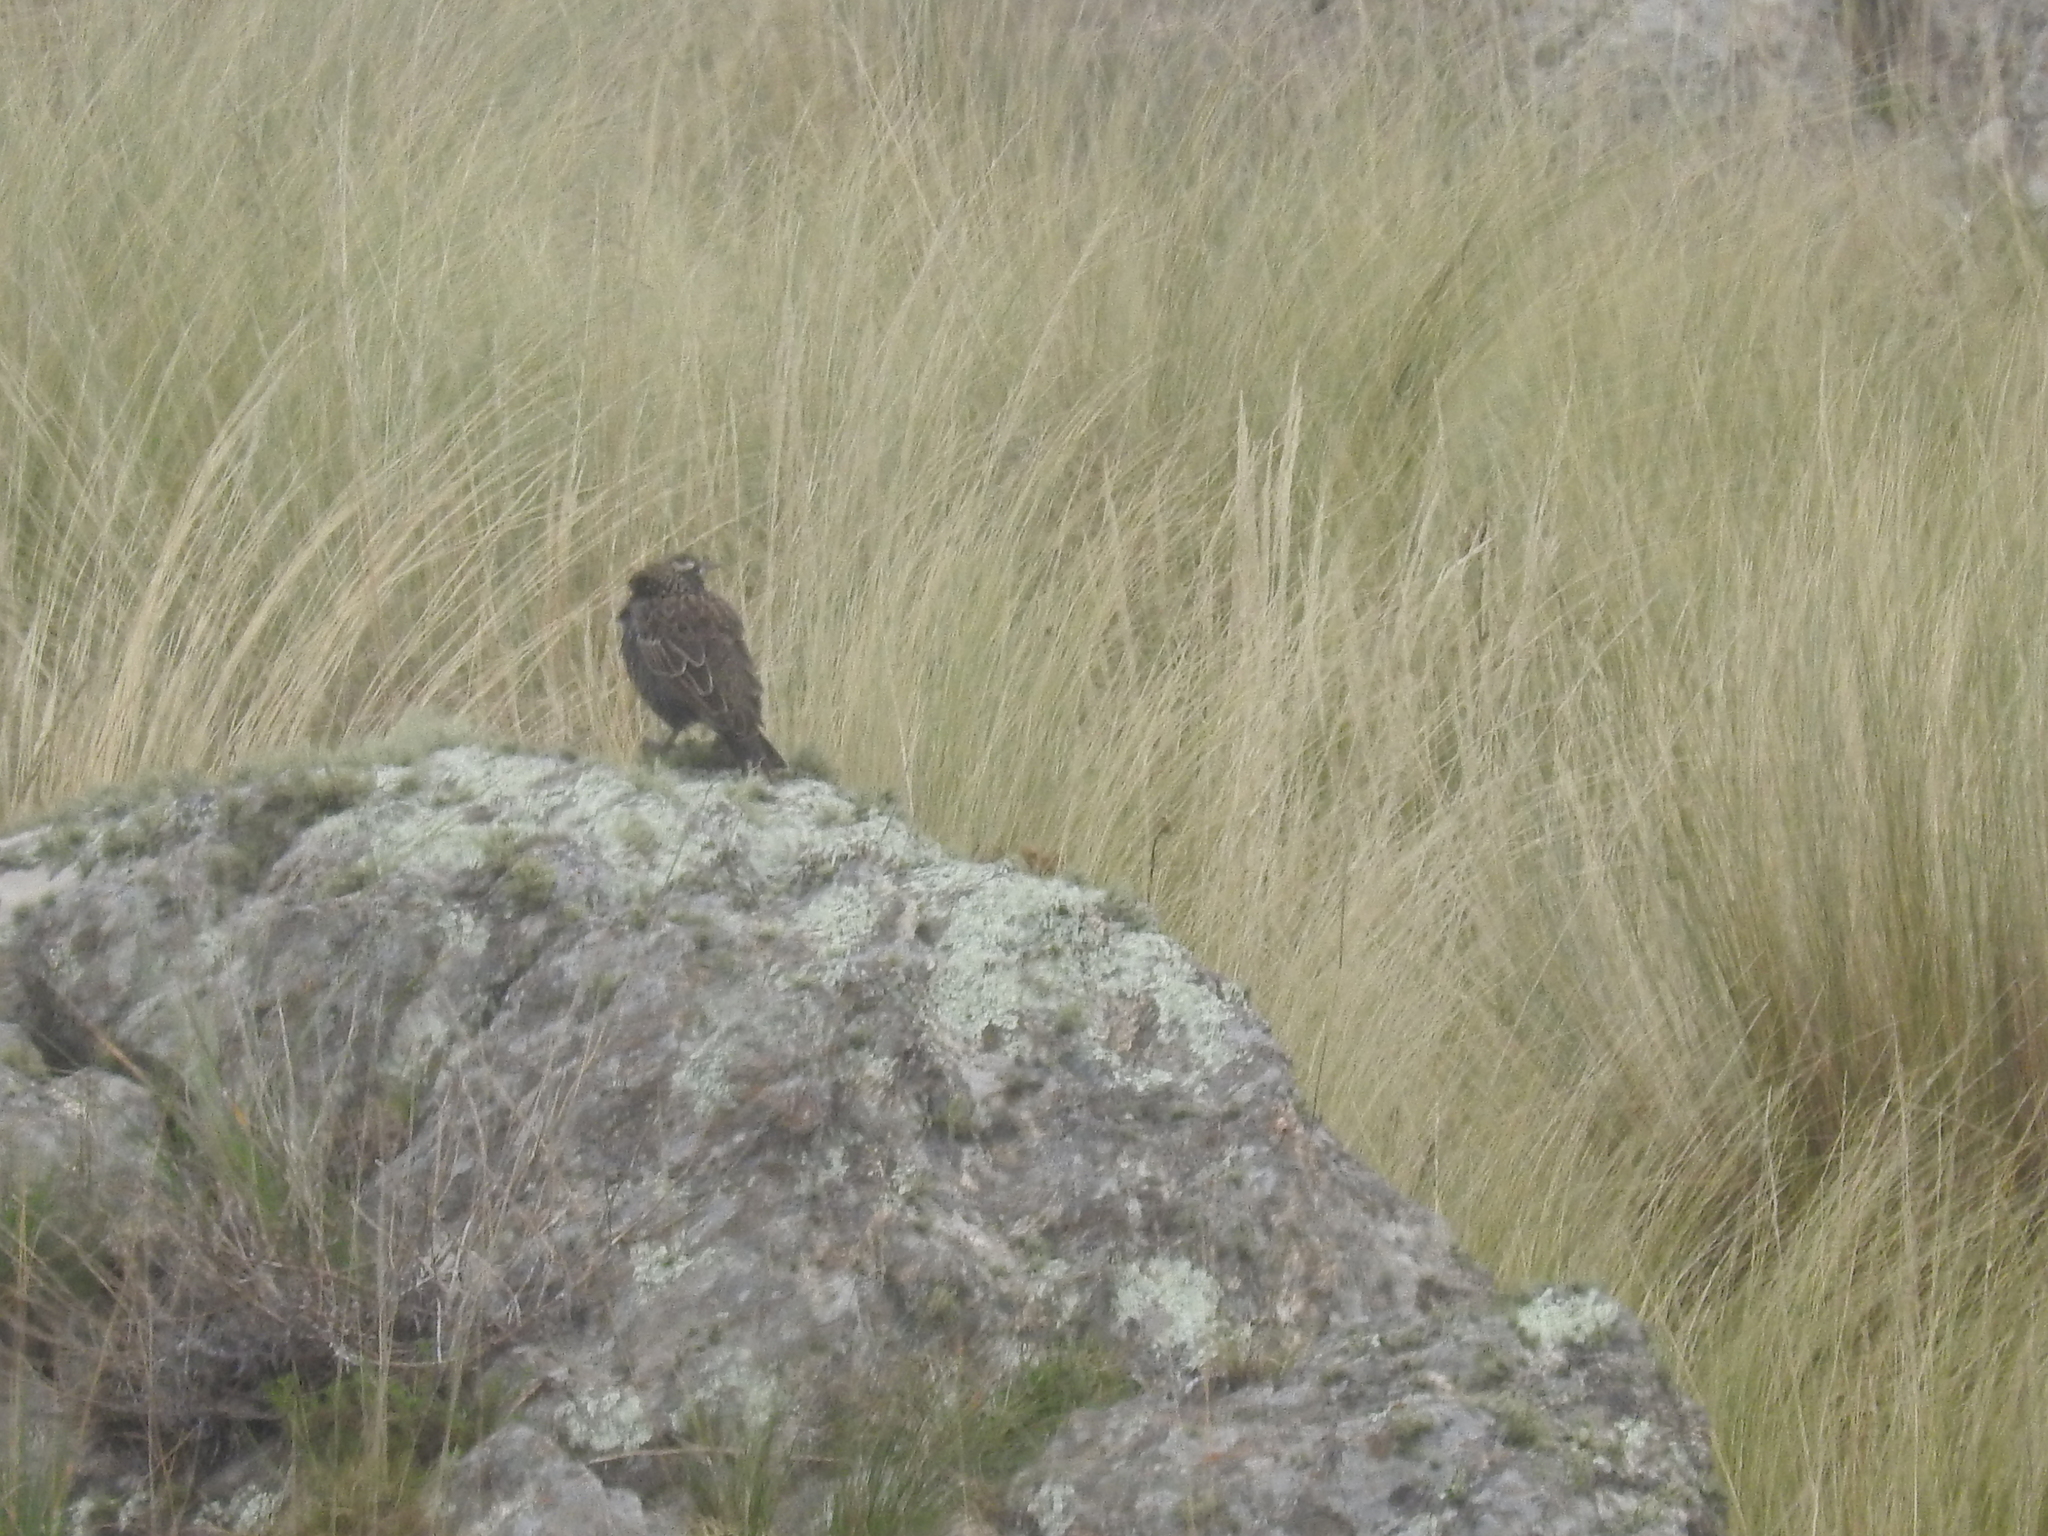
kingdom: Animalia
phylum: Chordata
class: Aves
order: Passeriformes
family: Icteridae
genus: Sturnella
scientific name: Sturnella loyca
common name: Long-tailed meadowlark
